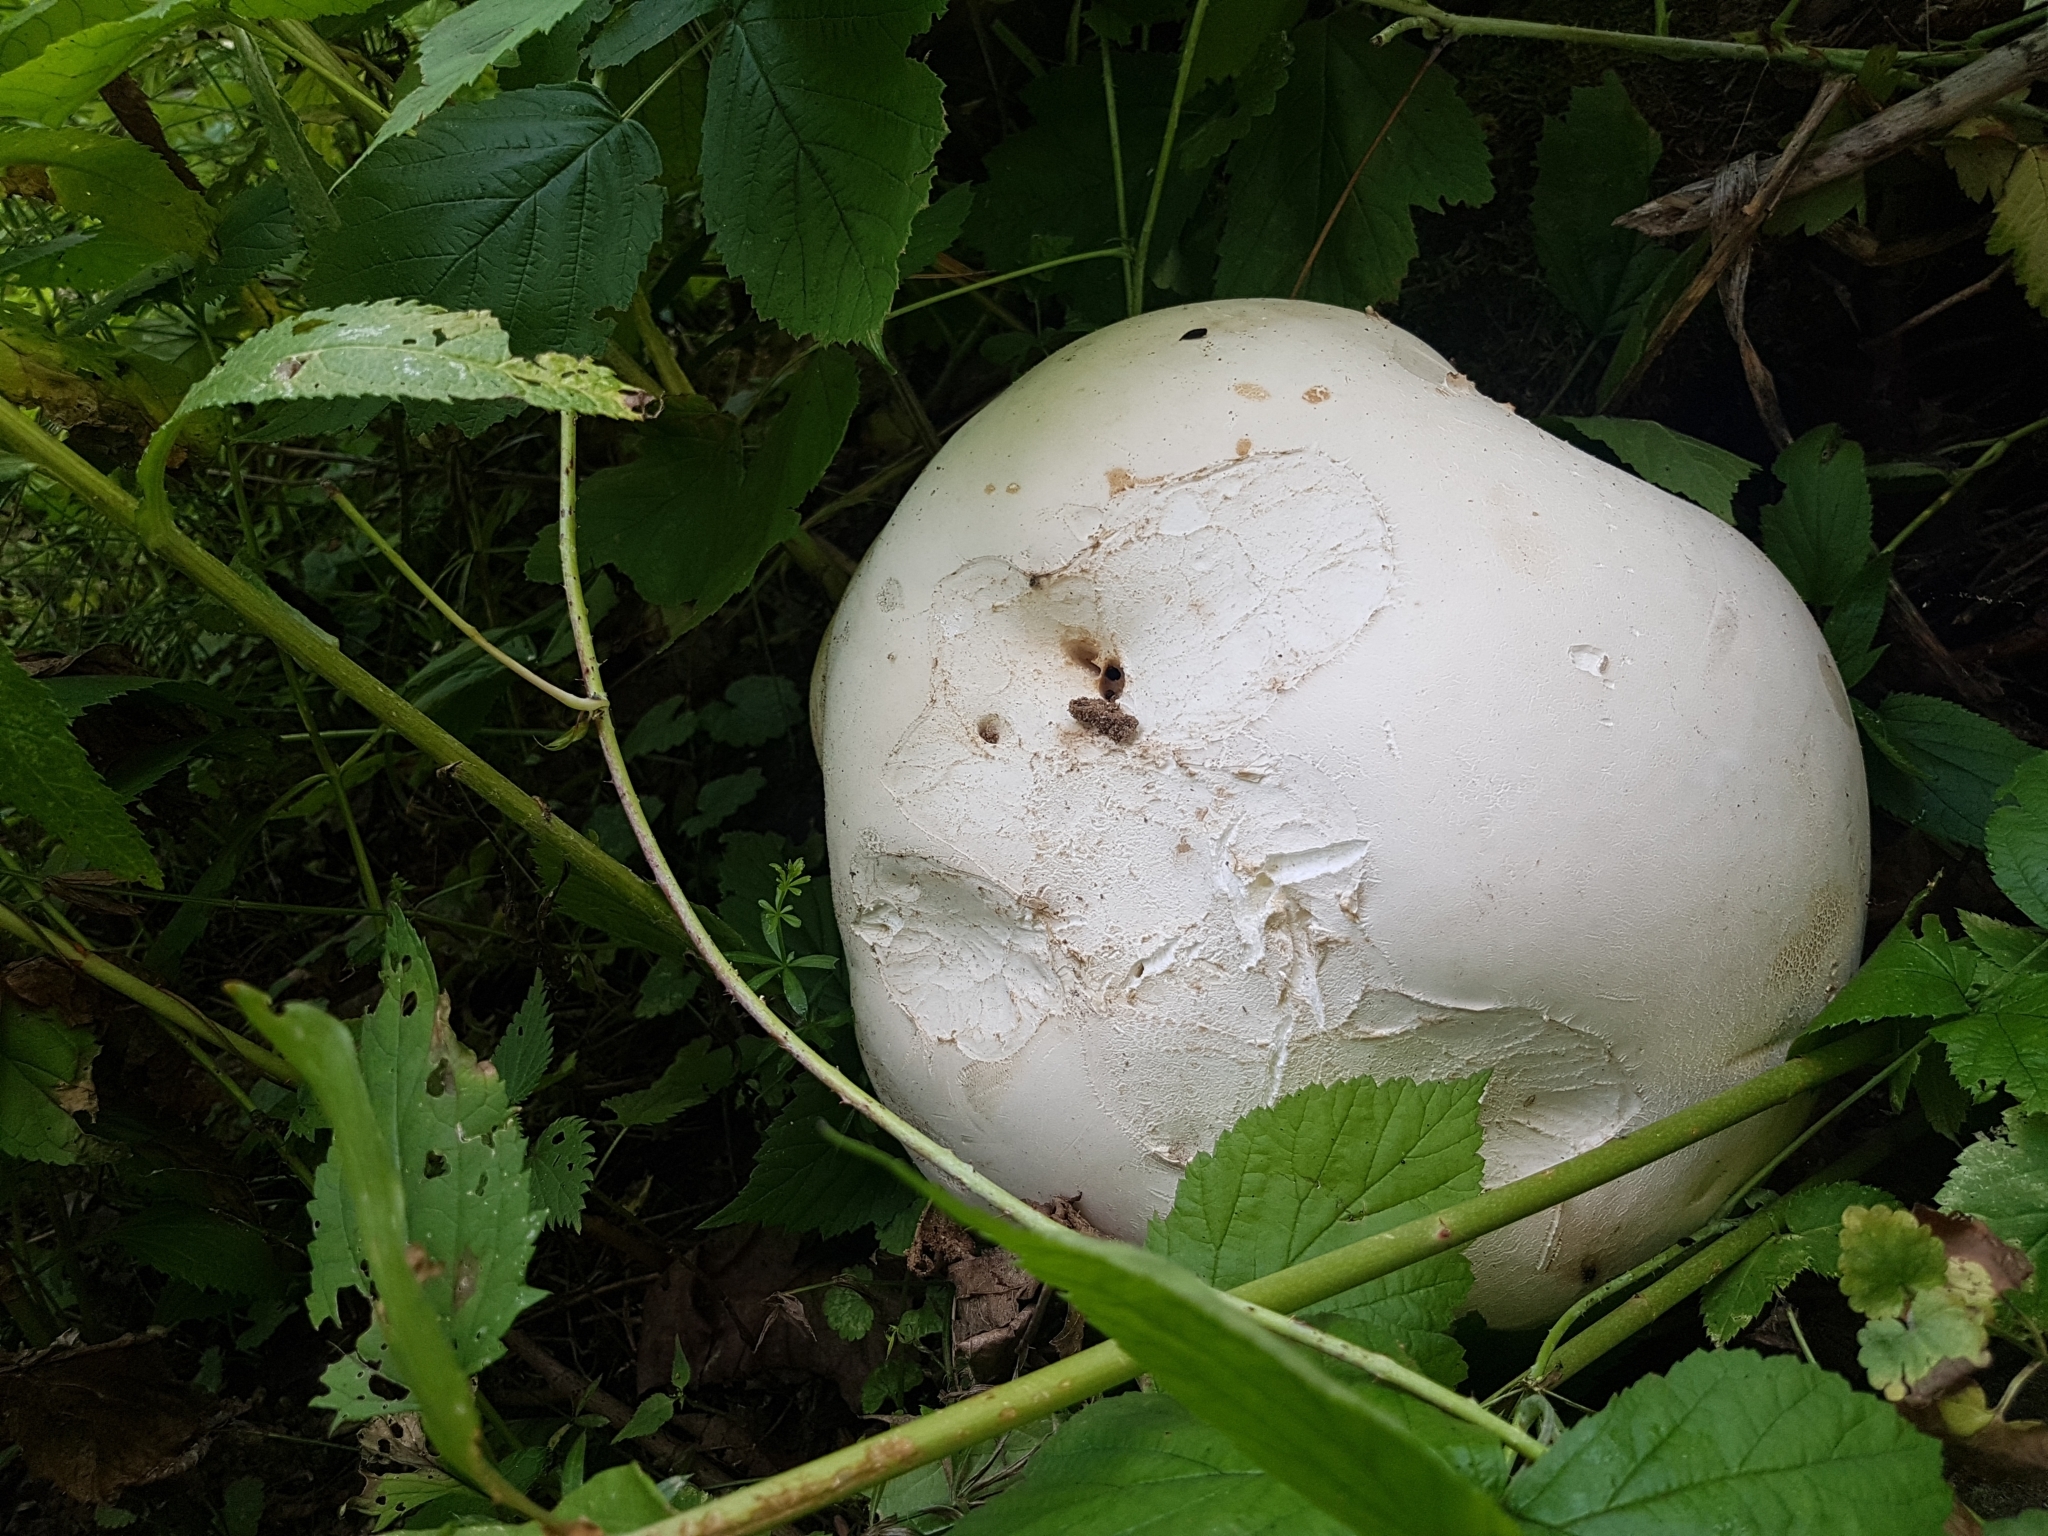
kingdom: Fungi
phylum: Basidiomycota
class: Agaricomycetes
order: Agaricales
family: Lycoperdaceae
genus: Calvatia
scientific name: Calvatia gigantea
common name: Giant puffball
